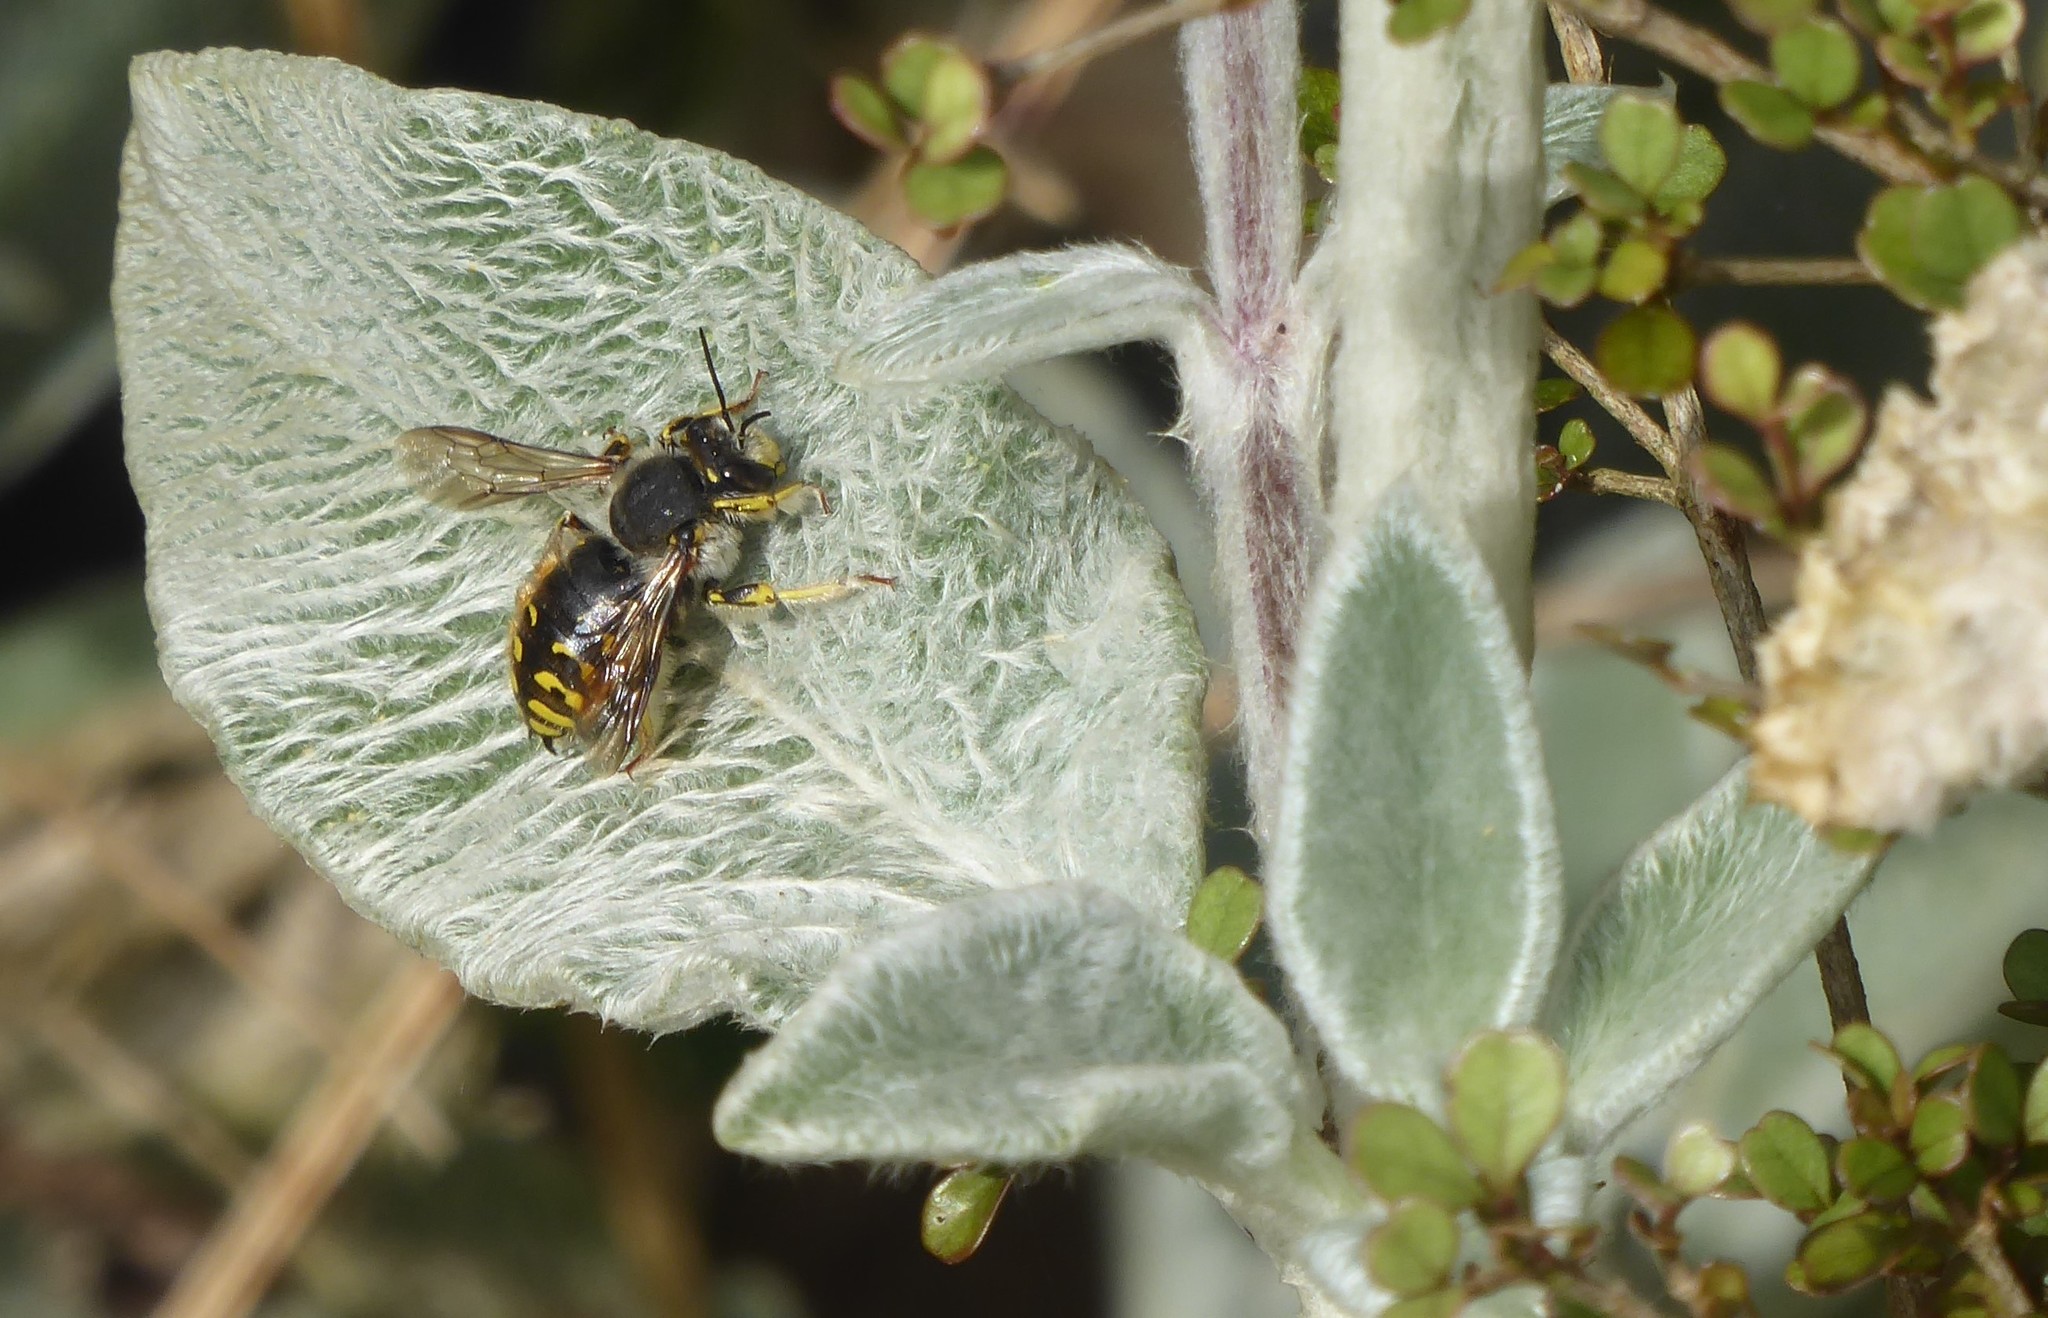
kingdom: Animalia
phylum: Arthropoda
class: Insecta
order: Hymenoptera
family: Megachilidae
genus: Anthidium
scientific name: Anthidium manicatum
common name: Wool carder bee
